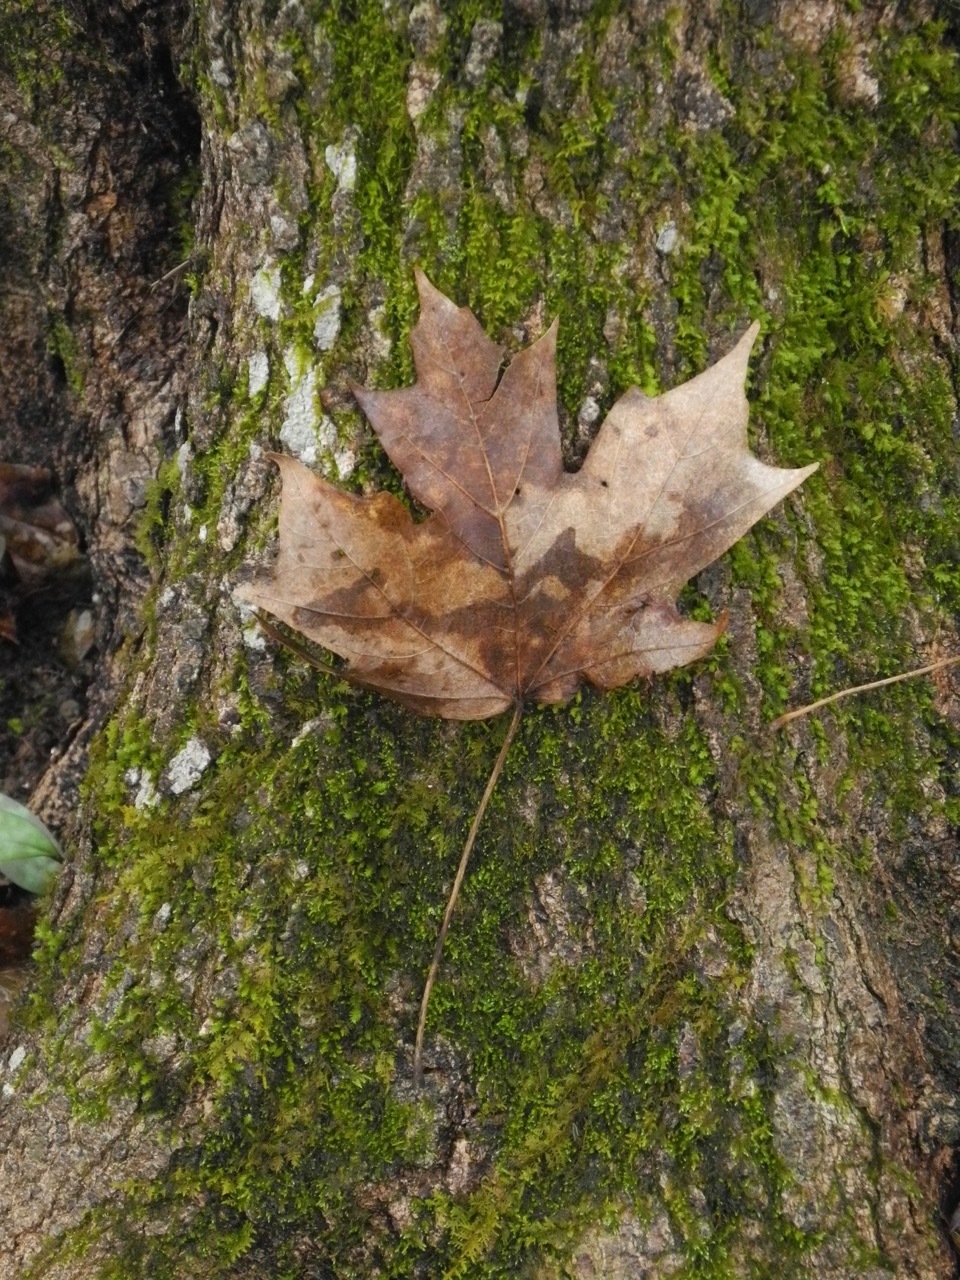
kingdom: Plantae
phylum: Tracheophyta
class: Magnoliopsida
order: Sapindales
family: Sapindaceae
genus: Acer
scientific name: Acer floridanum
